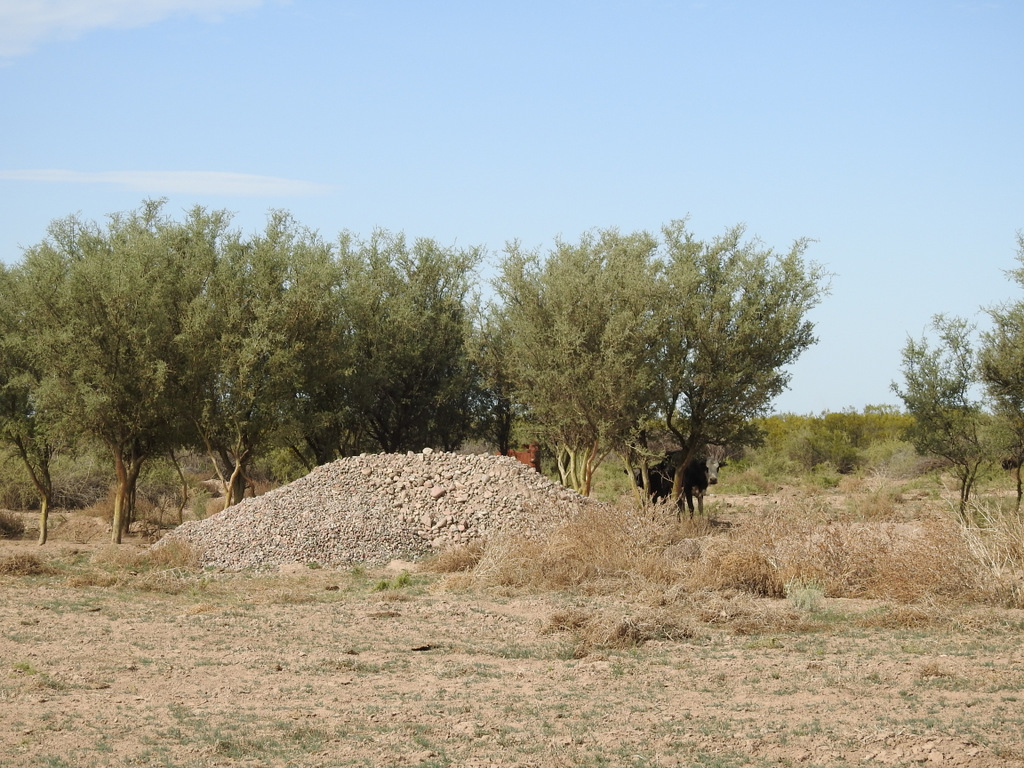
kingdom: Plantae
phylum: Tracheophyta
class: Magnoliopsida
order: Fabales
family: Fabaceae
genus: Geoffroea
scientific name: Geoffroea decorticans
